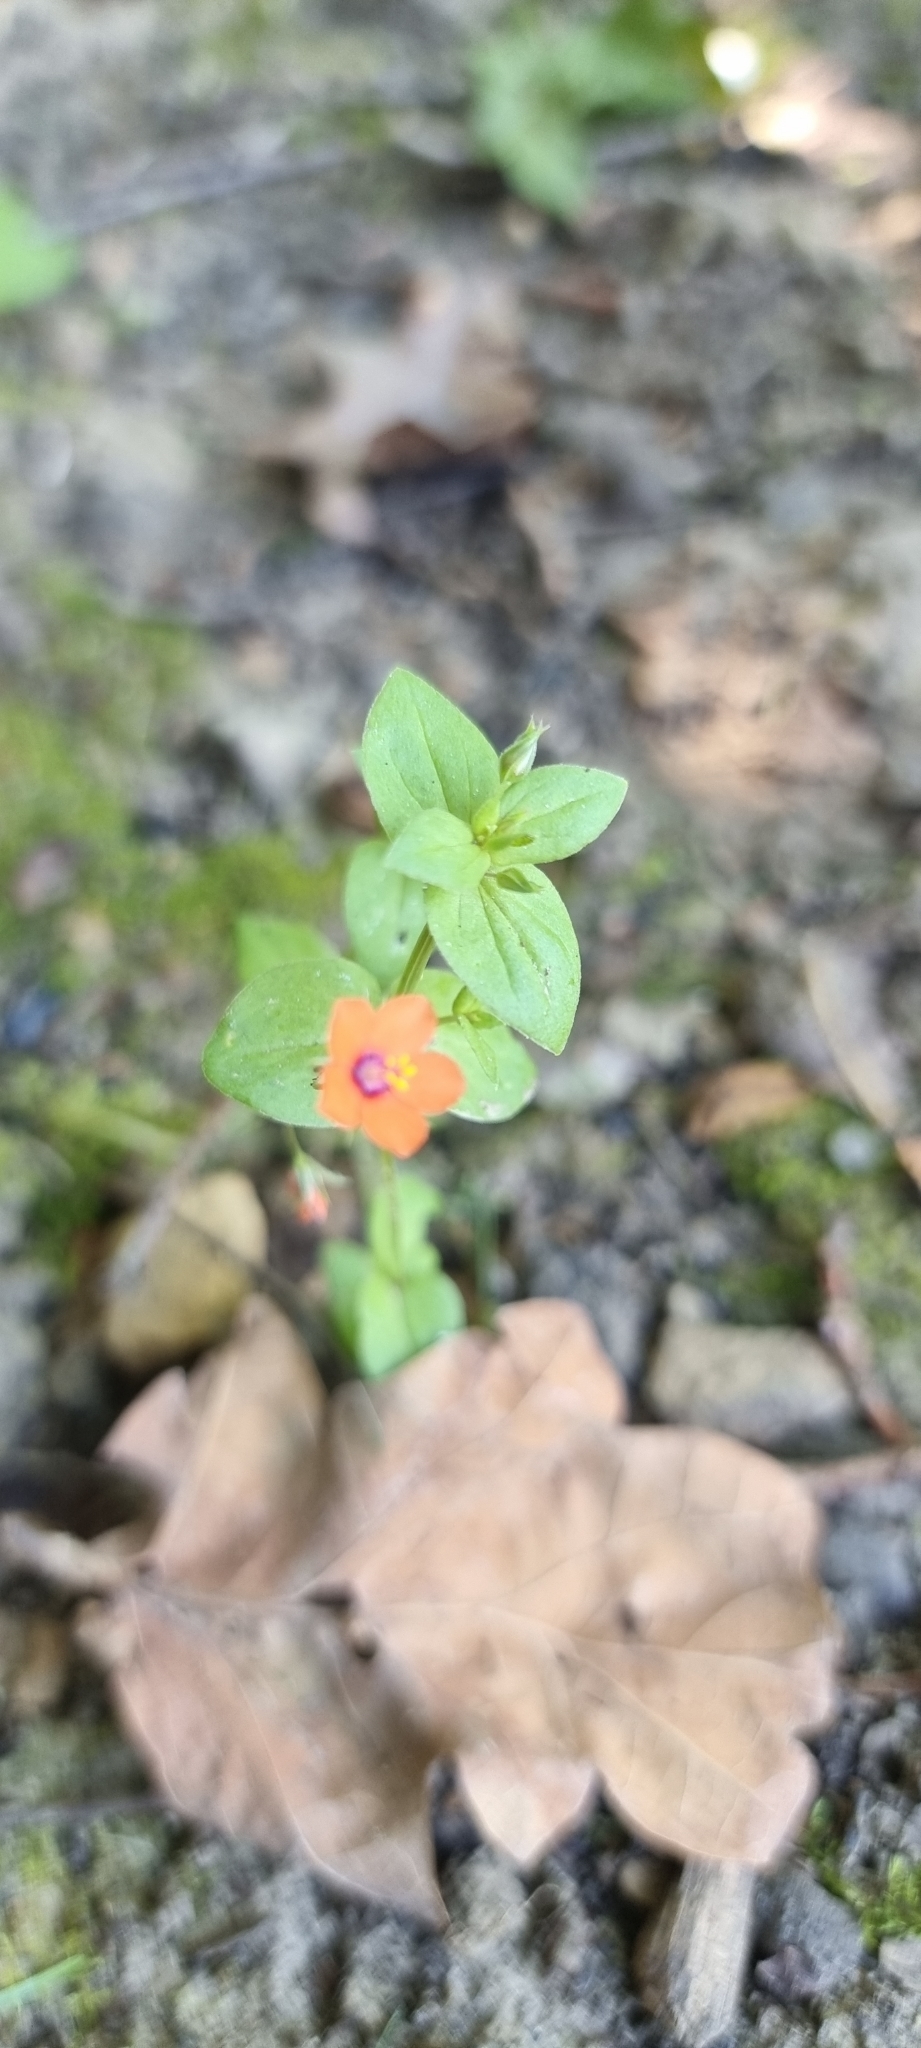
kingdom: Plantae
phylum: Tracheophyta
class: Magnoliopsida
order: Ericales
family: Primulaceae
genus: Lysimachia
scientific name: Lysimachia arvensis
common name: Scarlet pimpernel
